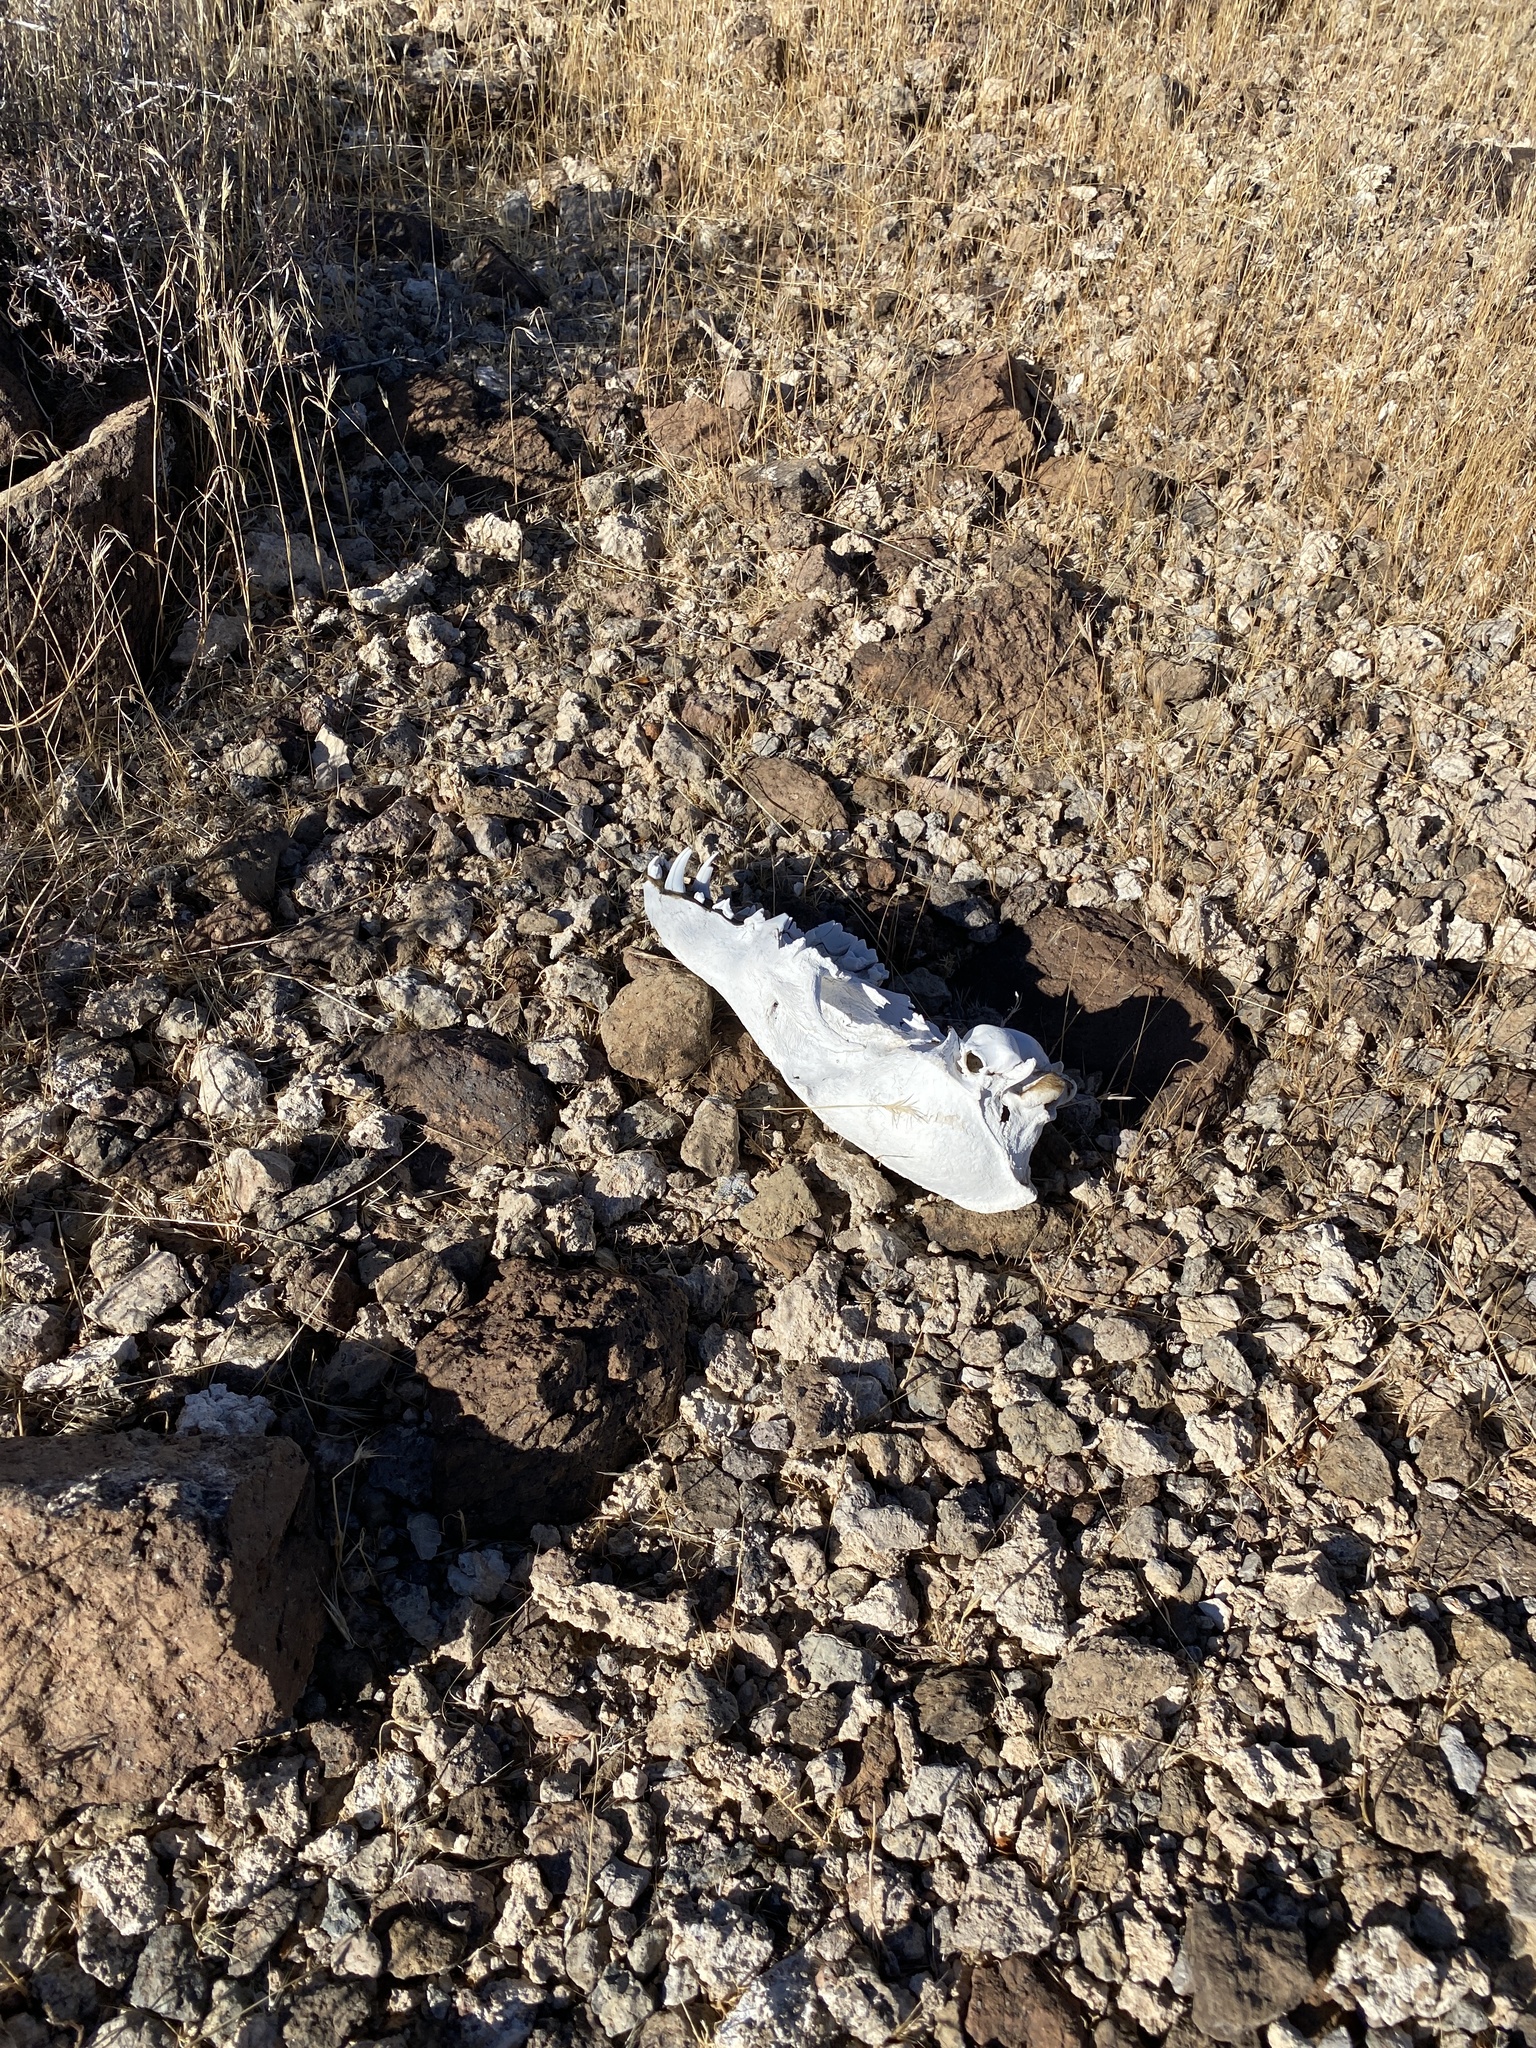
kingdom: Animalia
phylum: Chordata
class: Mammalia
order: Carnivora
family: Canidae
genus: Canis
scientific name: Canis latrans
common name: Coyote
